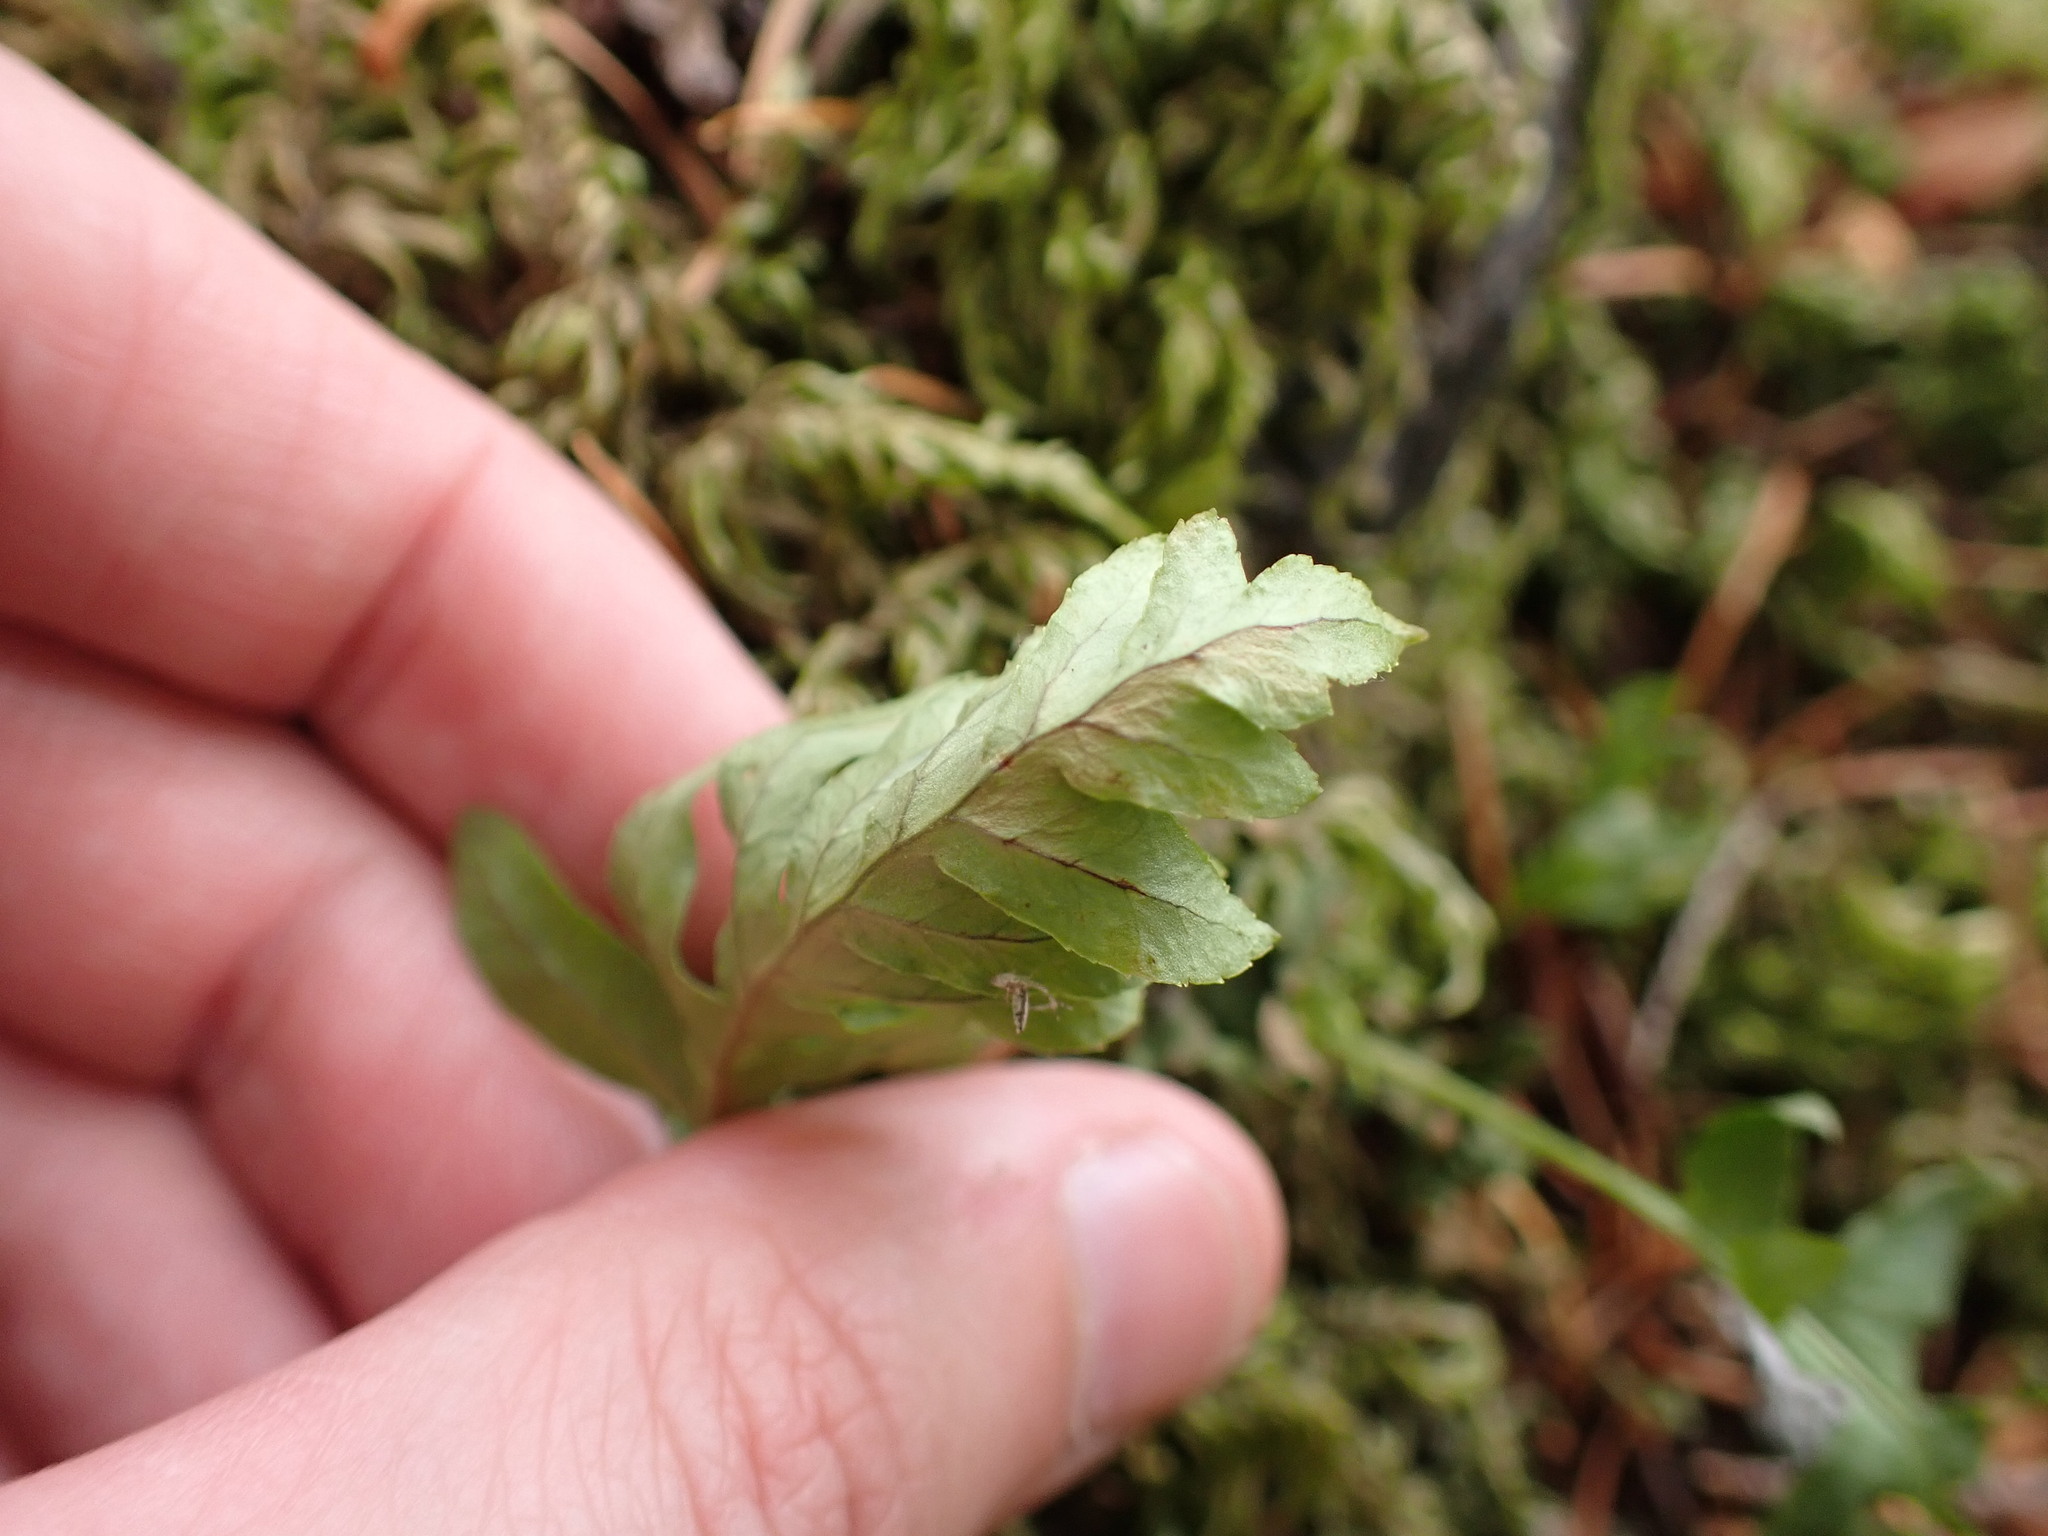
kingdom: Plantae
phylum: Tracheophyta
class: Polypodiopsida
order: Polypodiales
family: Polypodiaceae
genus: Polypodium
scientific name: Polypodium glycyrrhiza
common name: Licorice fern
